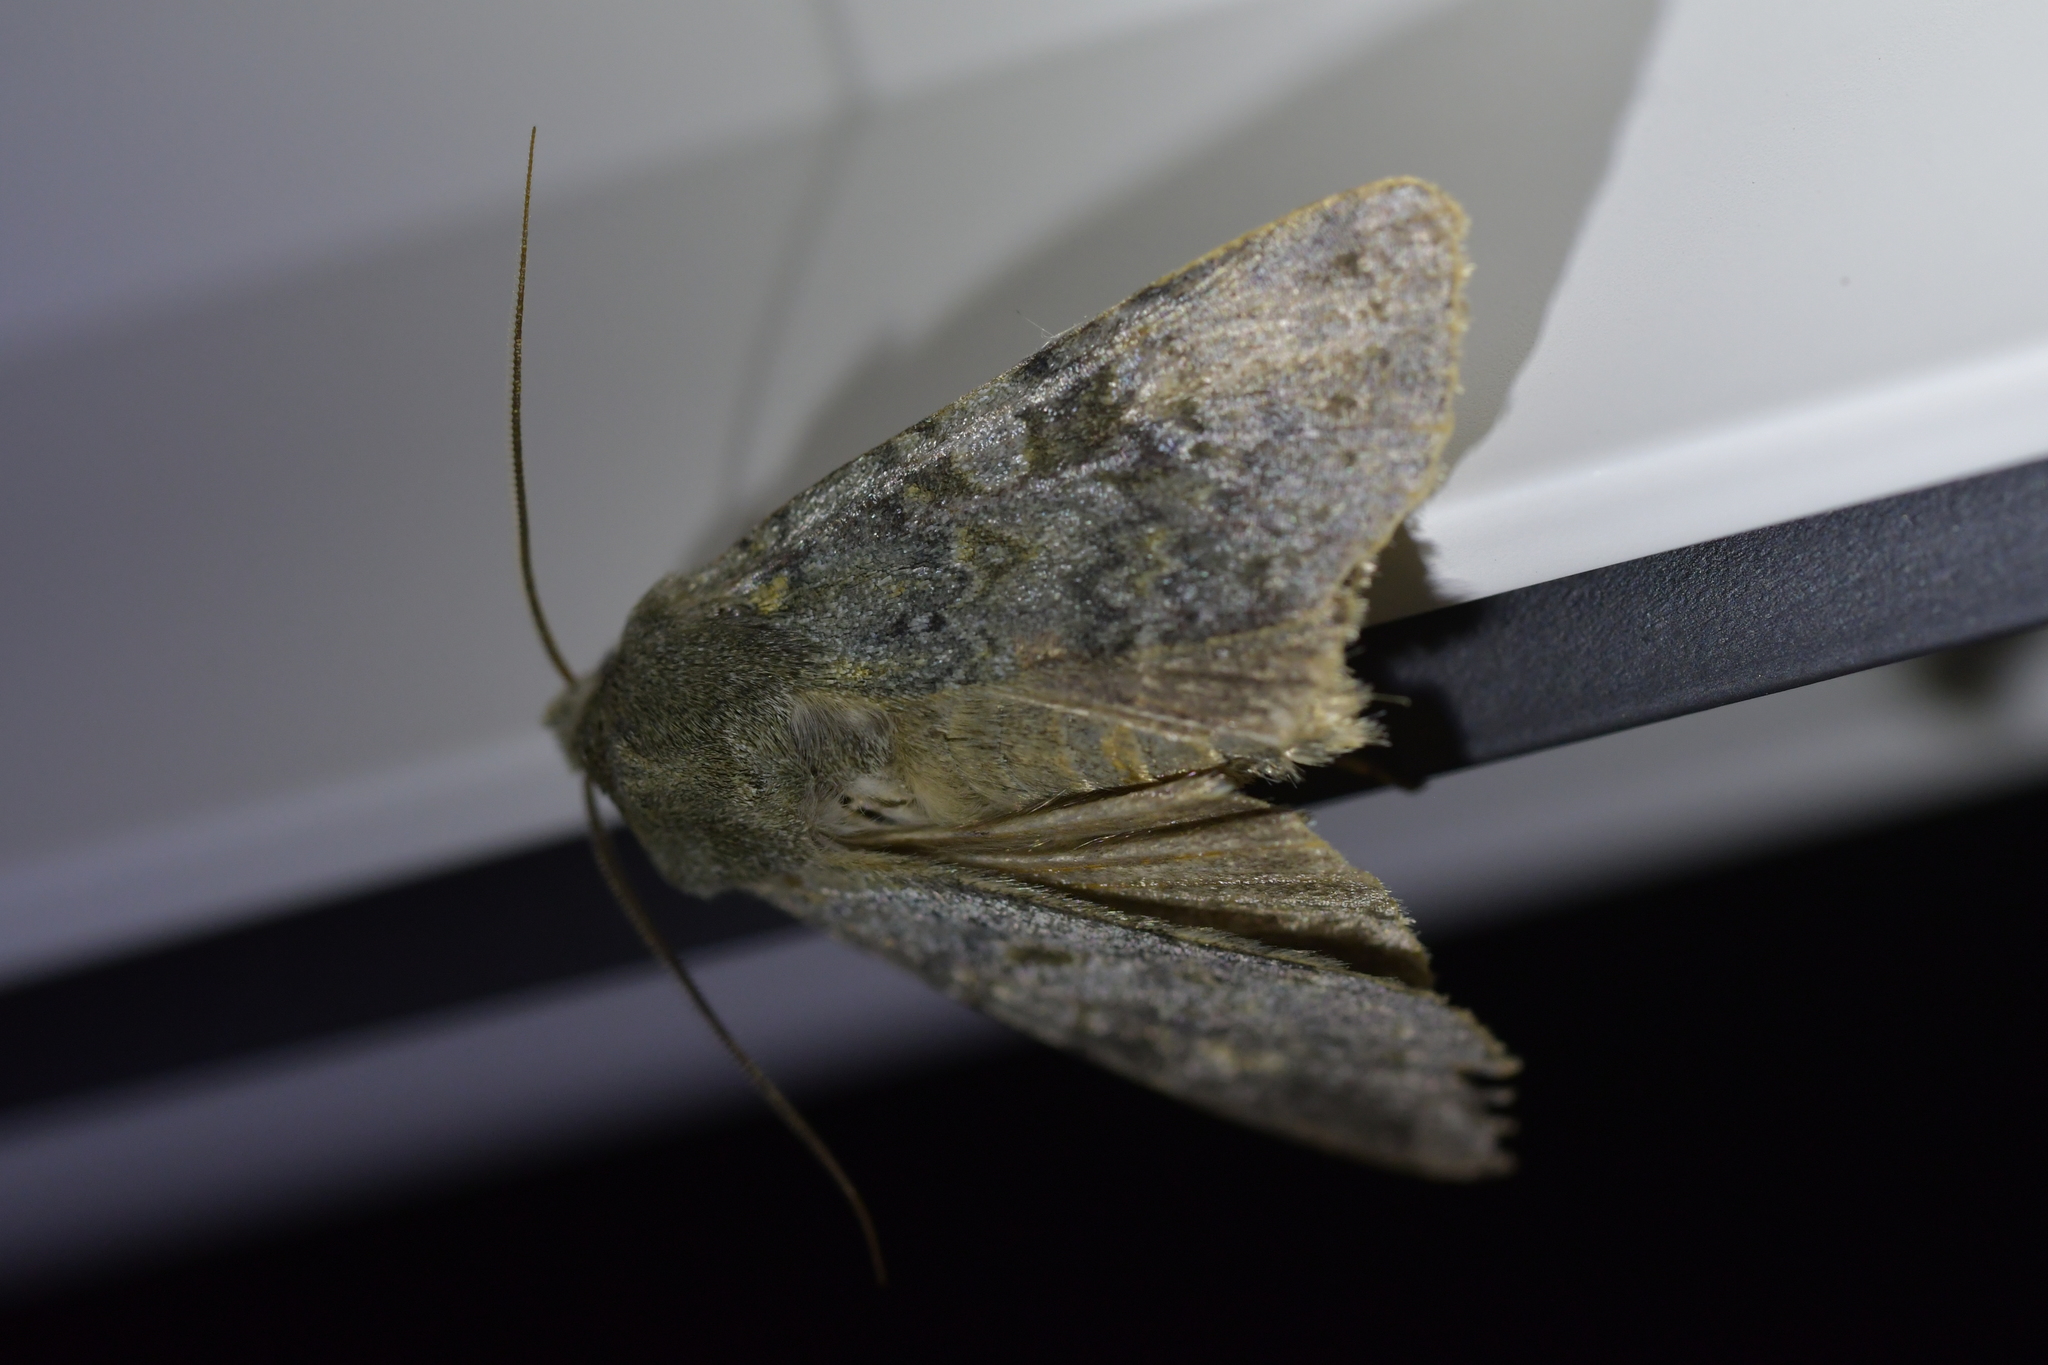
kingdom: Animalia
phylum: Arthropoda
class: Insecta
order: Lepidoptera
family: Noctuidae
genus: Ichneutica
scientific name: Ichneutica
